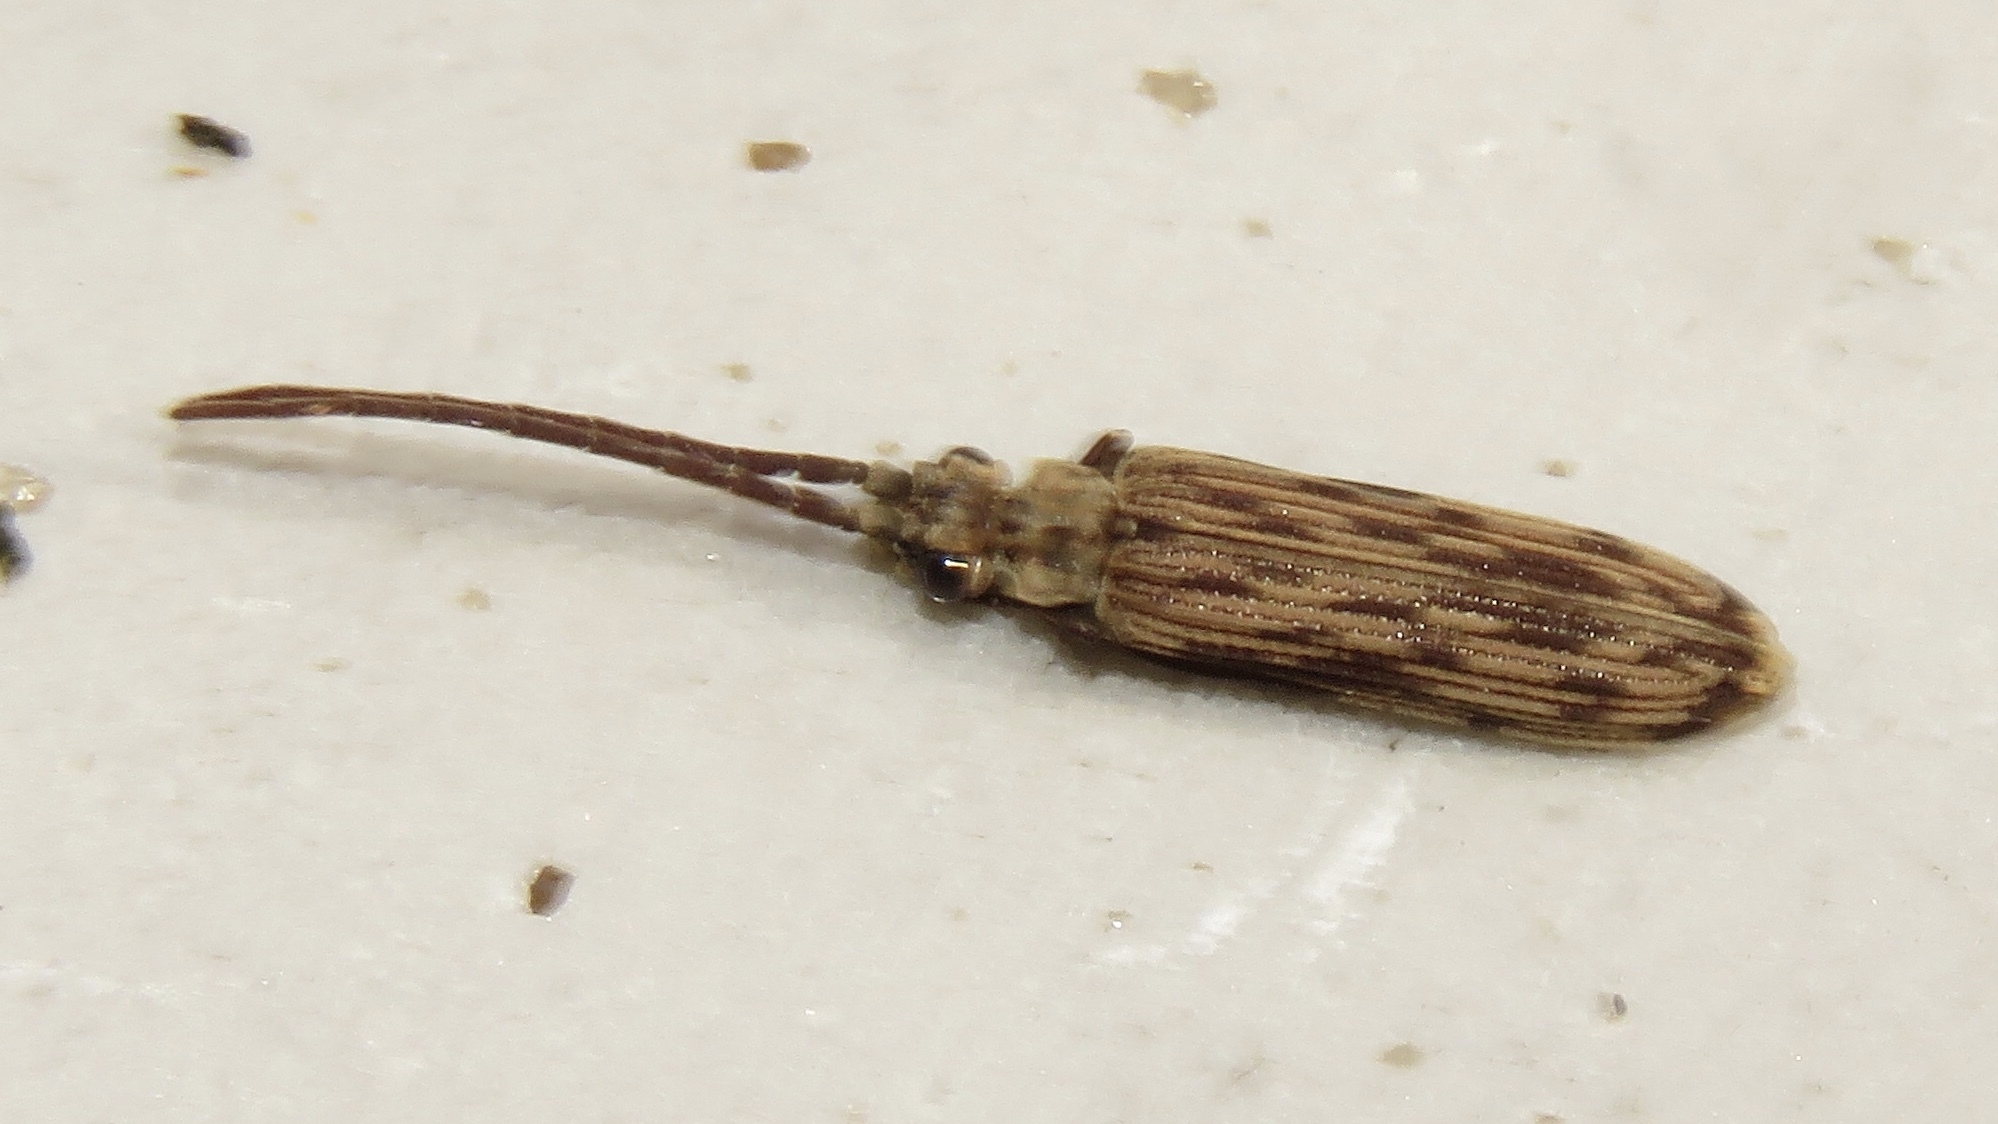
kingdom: Animalia
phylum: Arthropoda
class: Insecta
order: Coleoptera
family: Cupedidae
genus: Tenomerga
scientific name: Tenomerga cinerea
